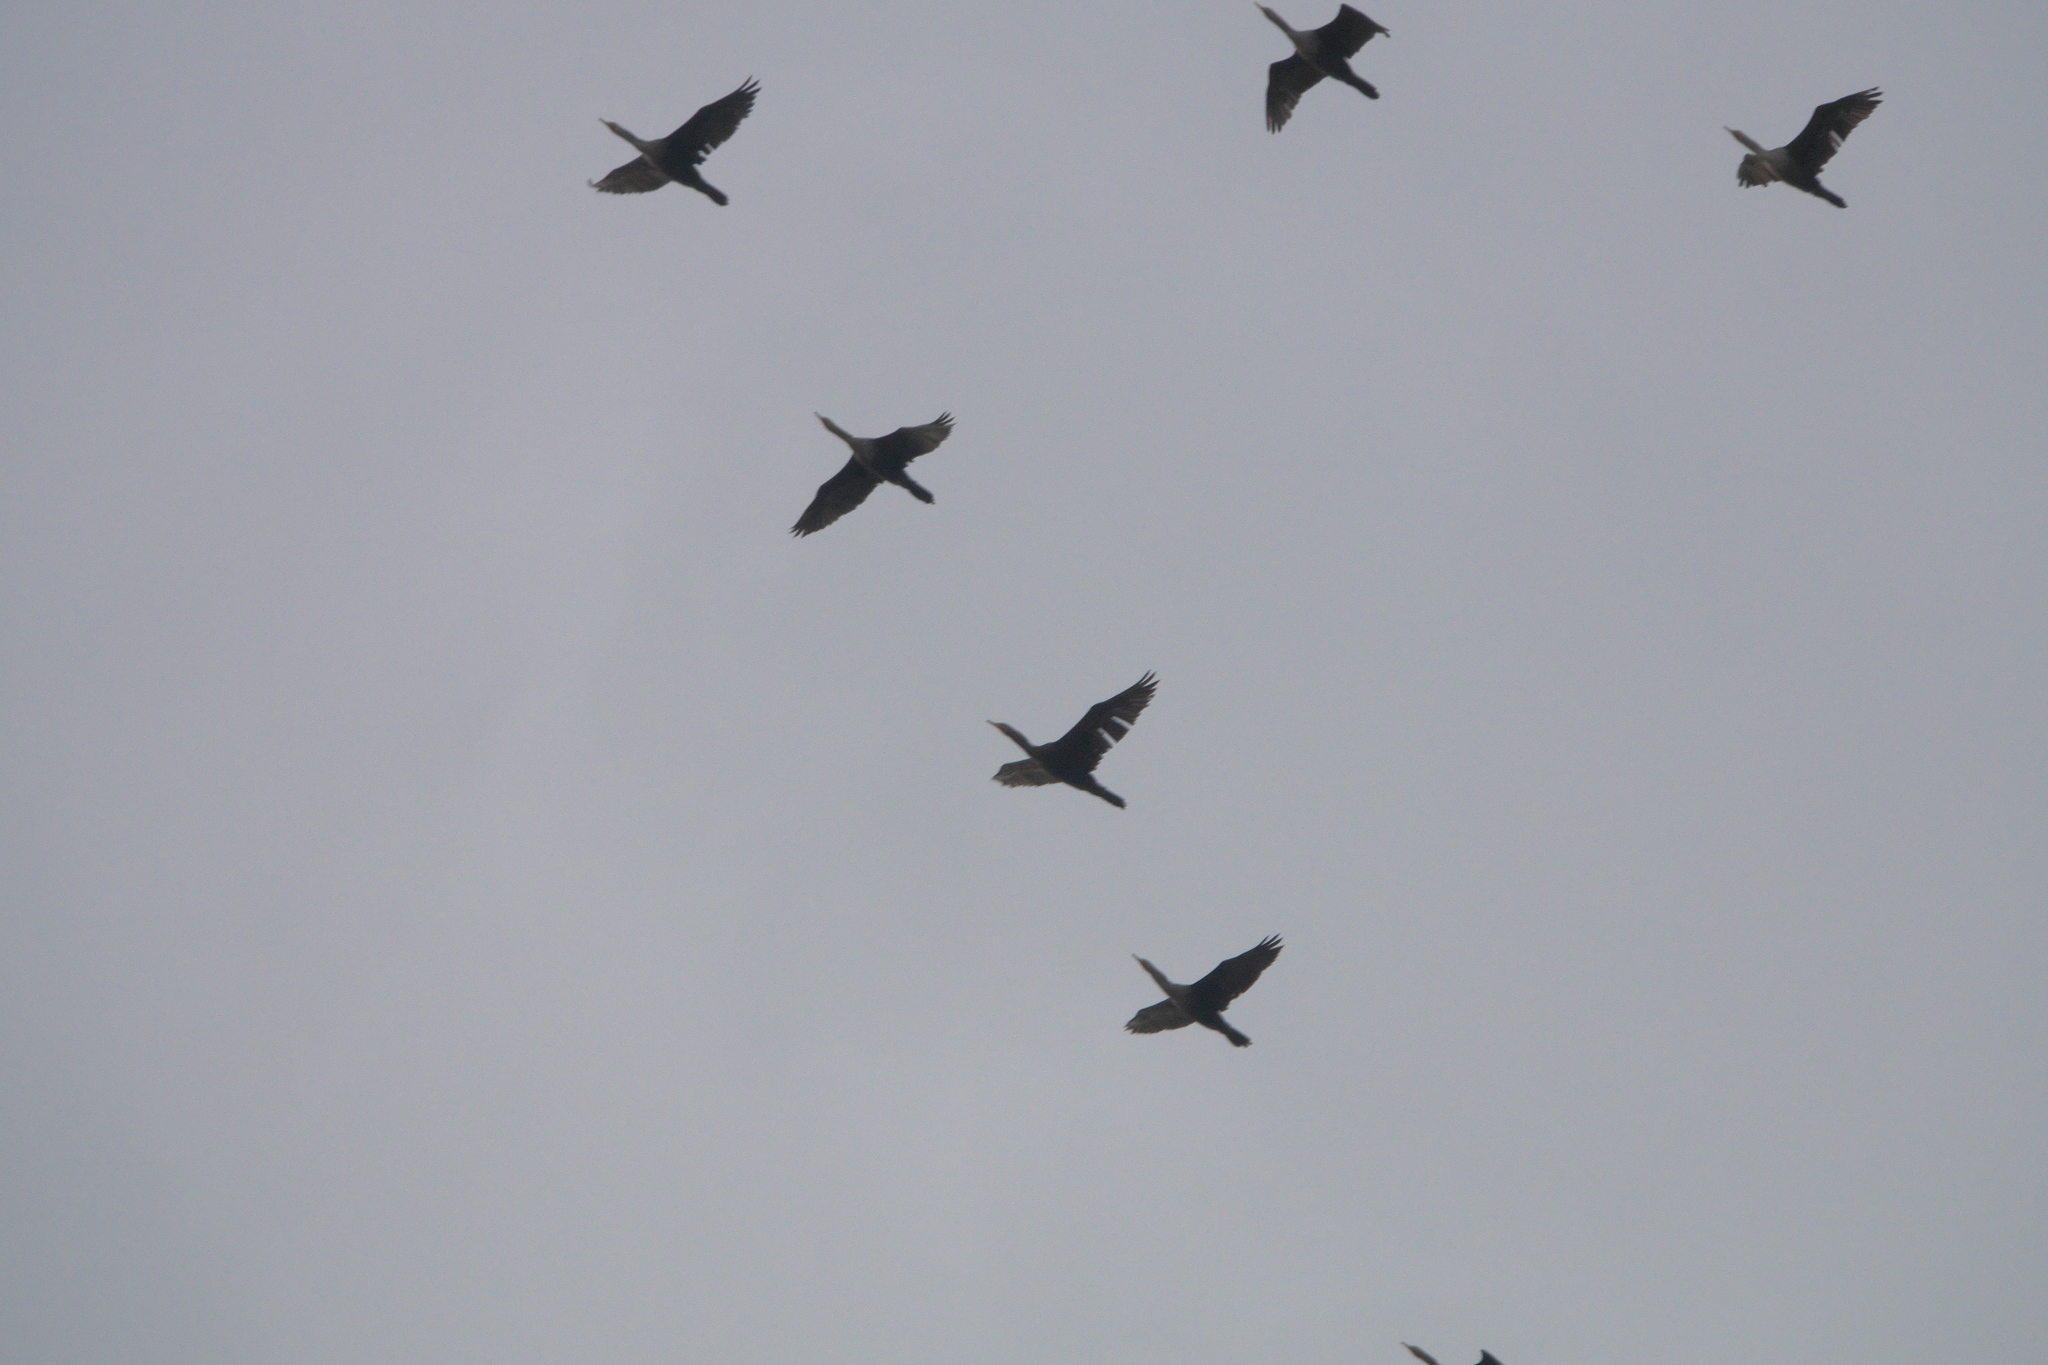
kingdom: Animalia
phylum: Chordata
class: Aves
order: Suliformes
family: Phalacrocoracidae
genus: Phalacrocorax
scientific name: Phalacrocorax auritus
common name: Double-crested cormorant
